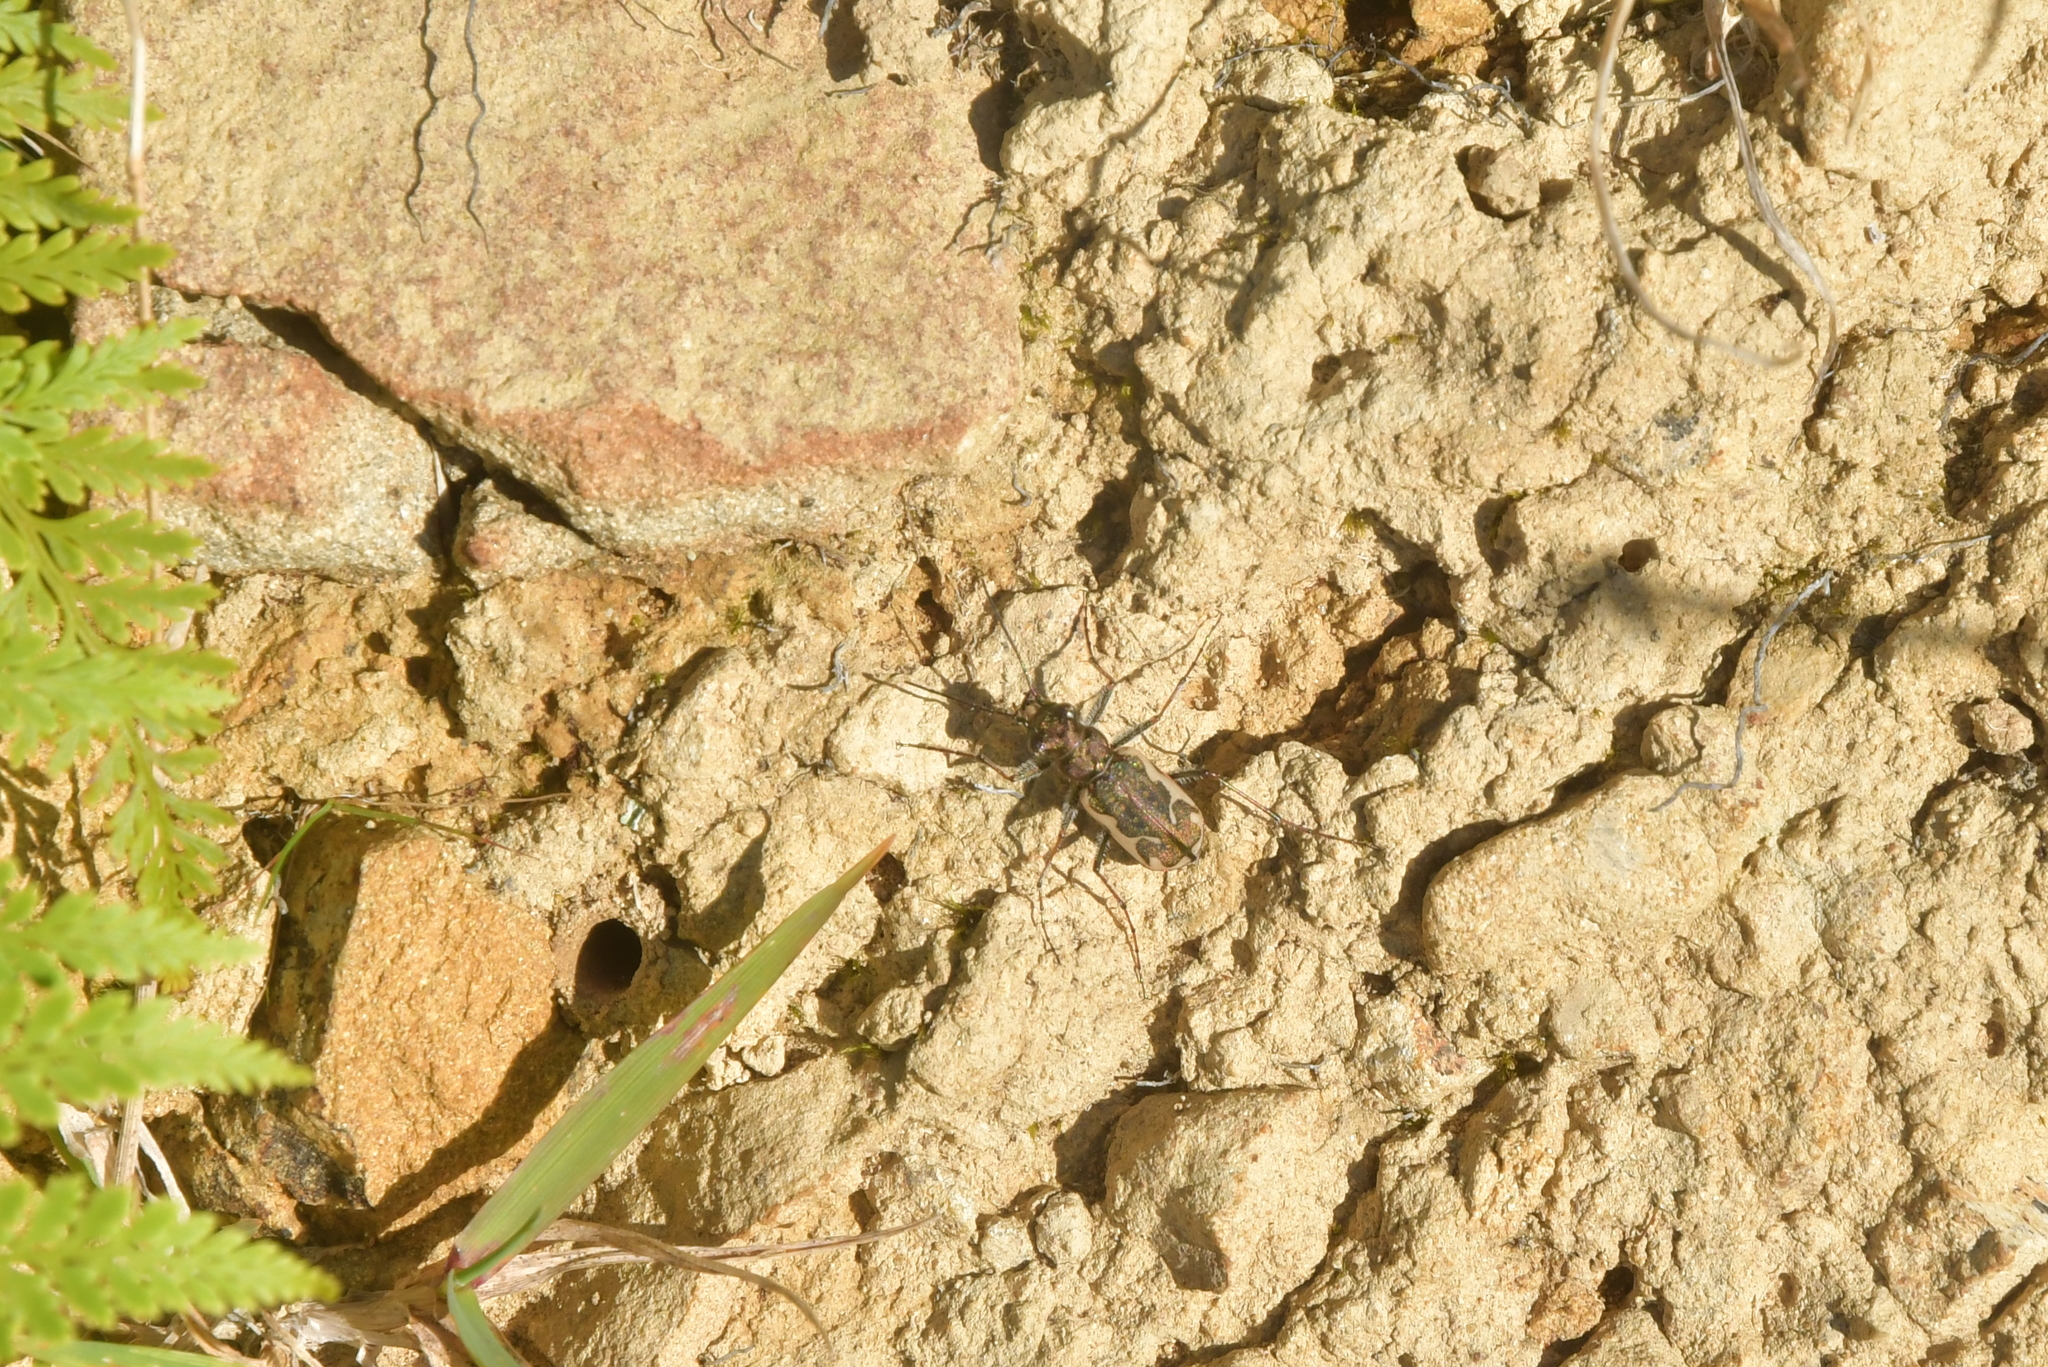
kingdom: Animalia
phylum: Arthropoda
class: Insecta
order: Coleoptera
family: Carabidae
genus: Neocicindela
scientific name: Neocicindela tuberculata
